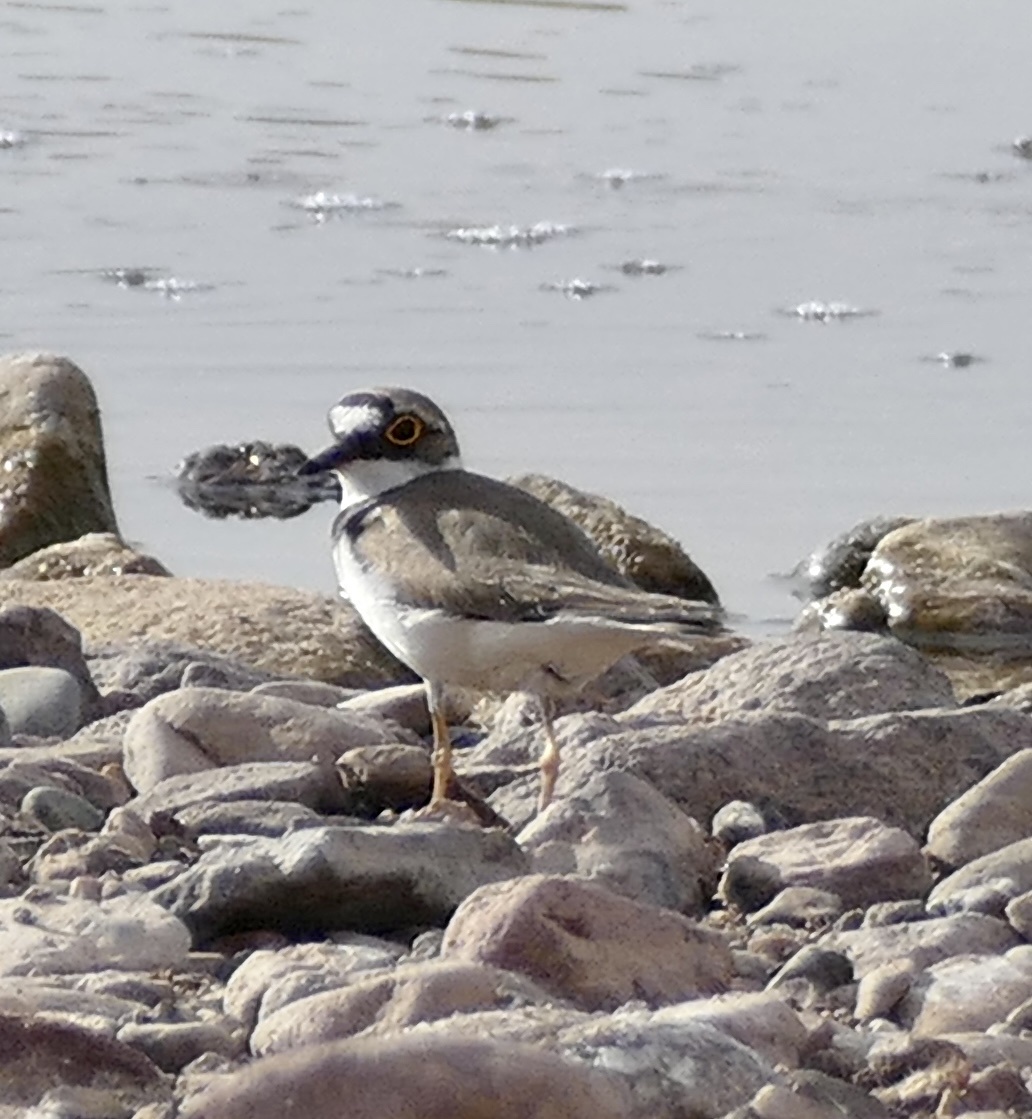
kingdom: Animalia
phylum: Chordata
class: Aves
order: Charadriiformes
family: Charadriidae
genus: Charadrius
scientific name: Charadrius dubius
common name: Little ringed plover
